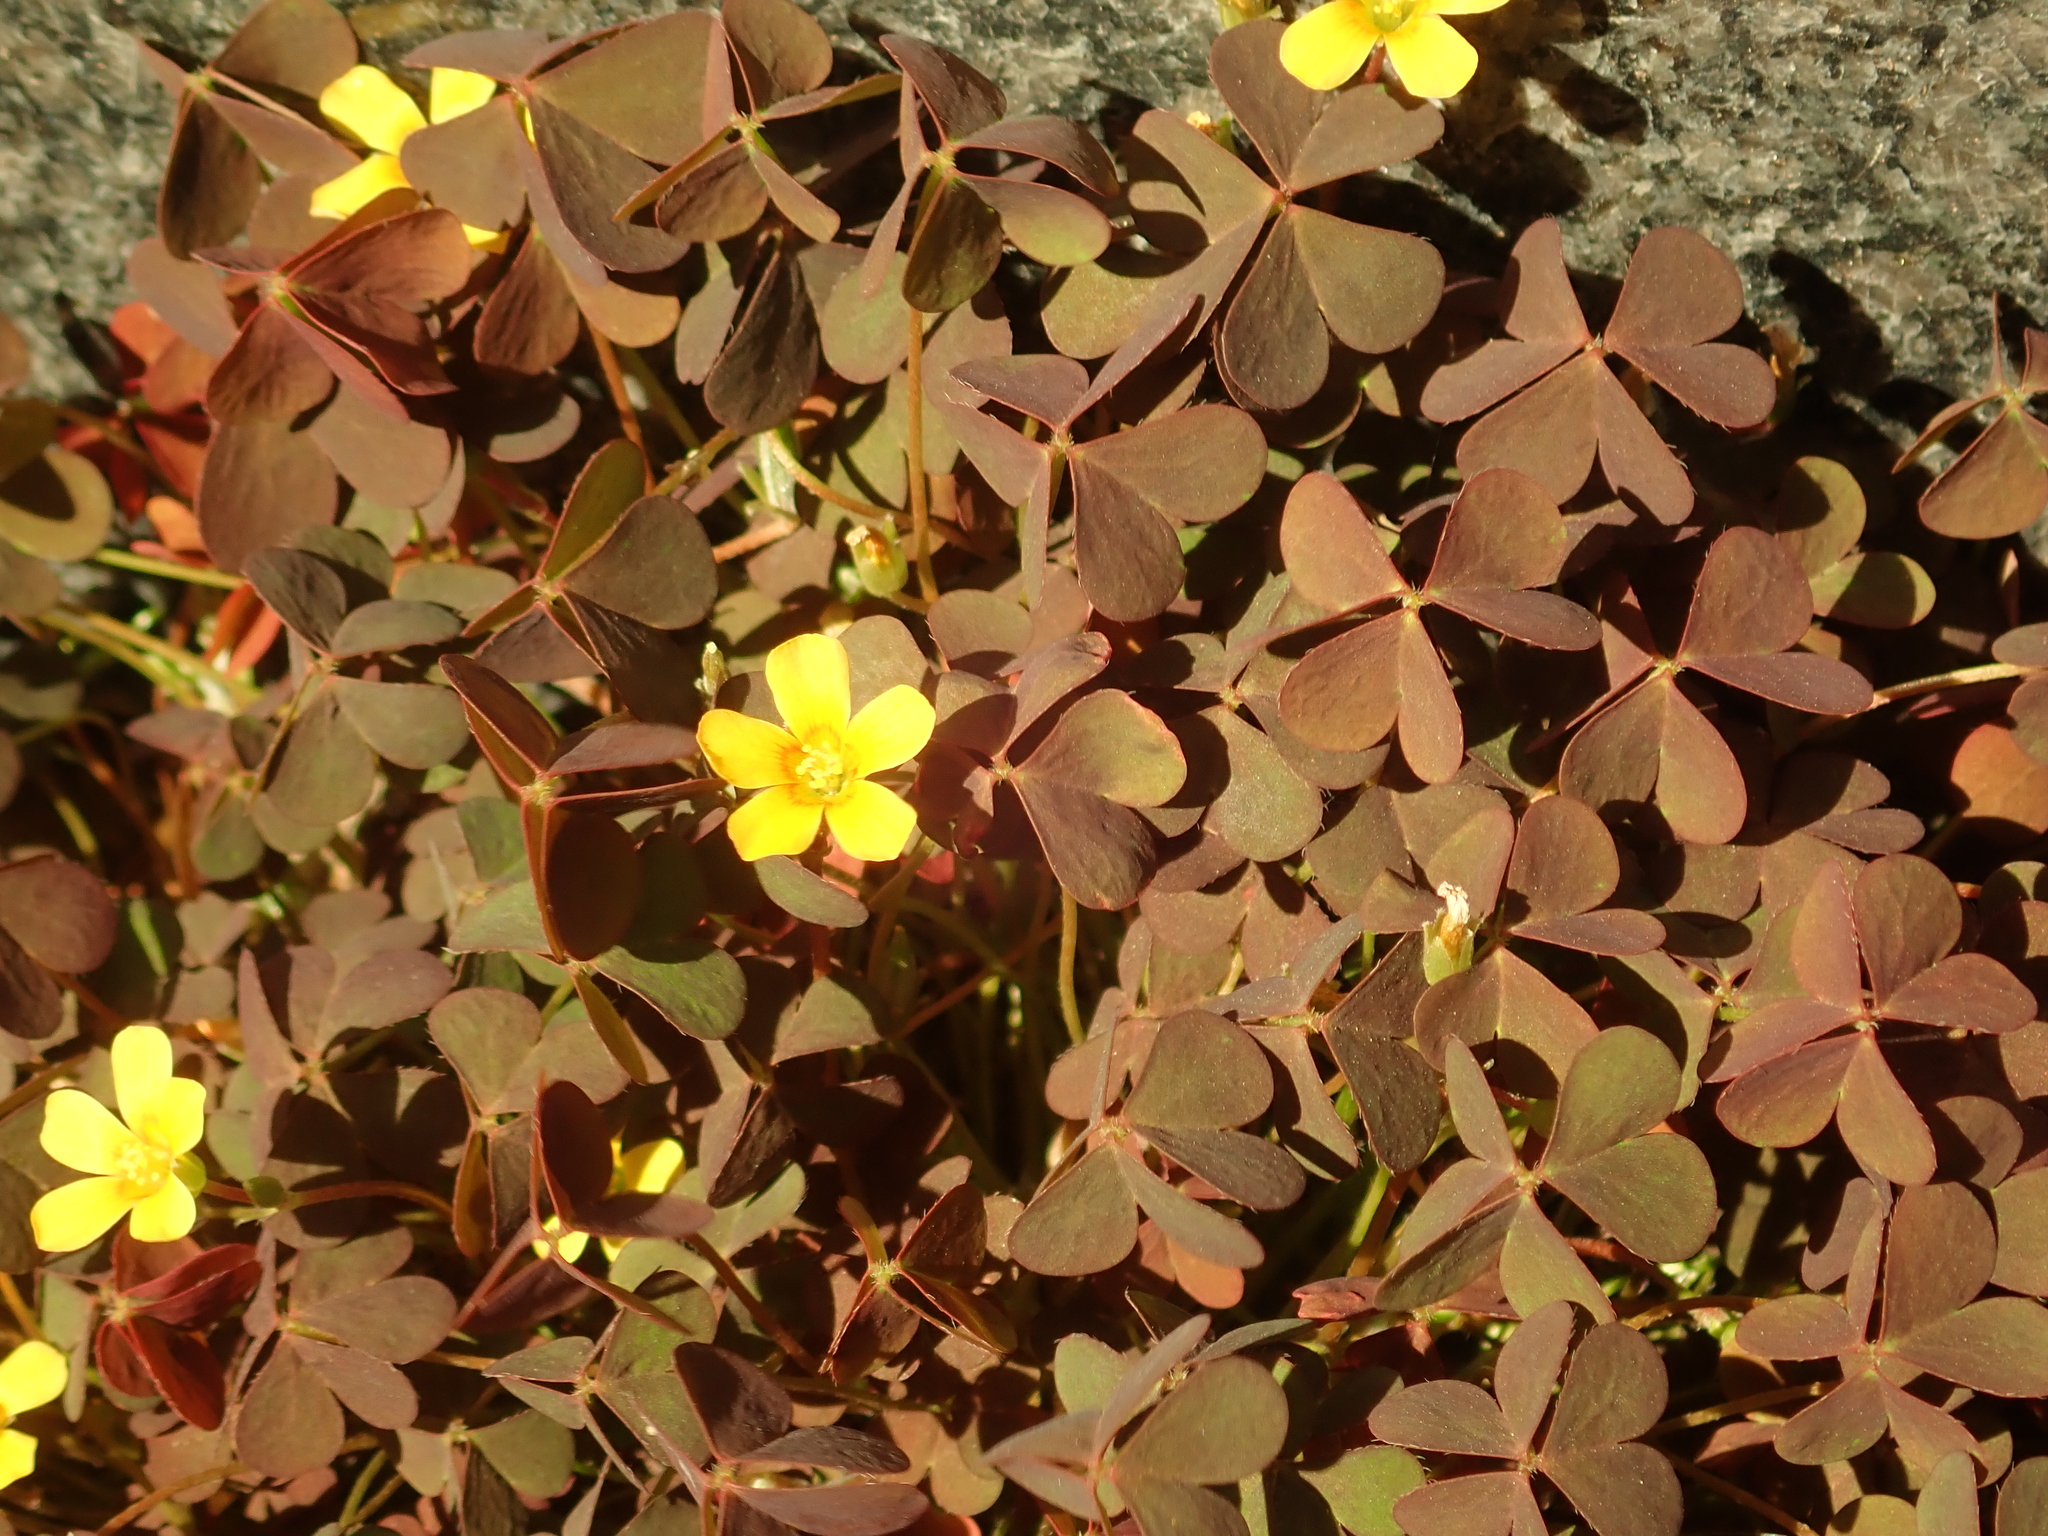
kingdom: Plantae
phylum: Tracheophyta
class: Magnoliopsida
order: Oxalidales
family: Oxalidaceae
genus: Oxalis
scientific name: Oxalis corniculata
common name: Procumbent yellow-sorrel
